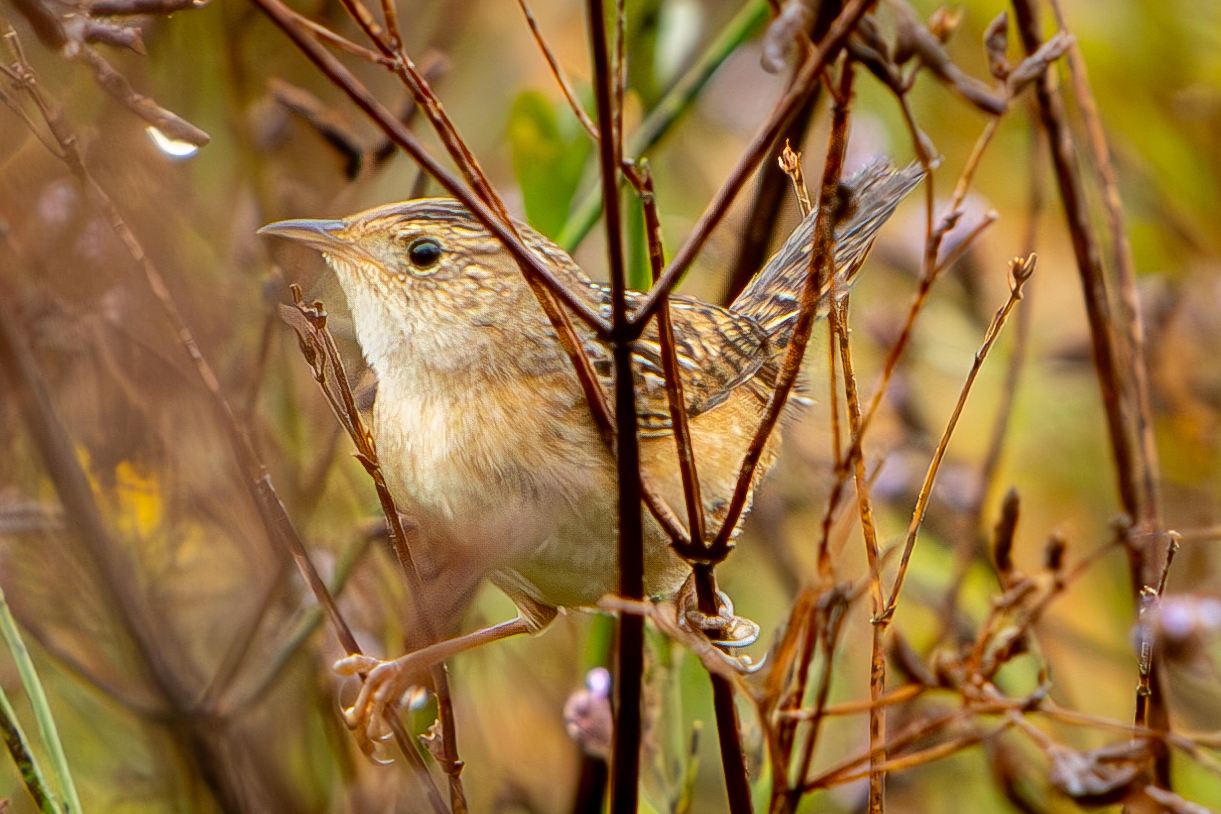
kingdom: Animalia
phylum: Chordata
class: Aves
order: Passeriformes
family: Troglodytidae
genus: Cistothorus
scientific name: Cistothorus platensis
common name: Sedge wren
